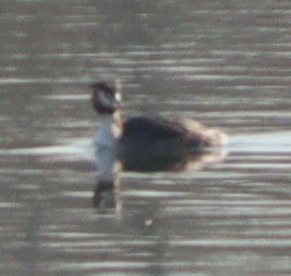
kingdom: Animalia
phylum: Chordata
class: Aves
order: Podicipediformes
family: Podicipedidae
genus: Podiceps
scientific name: Podiceps cristatus
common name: Great crested grebe
